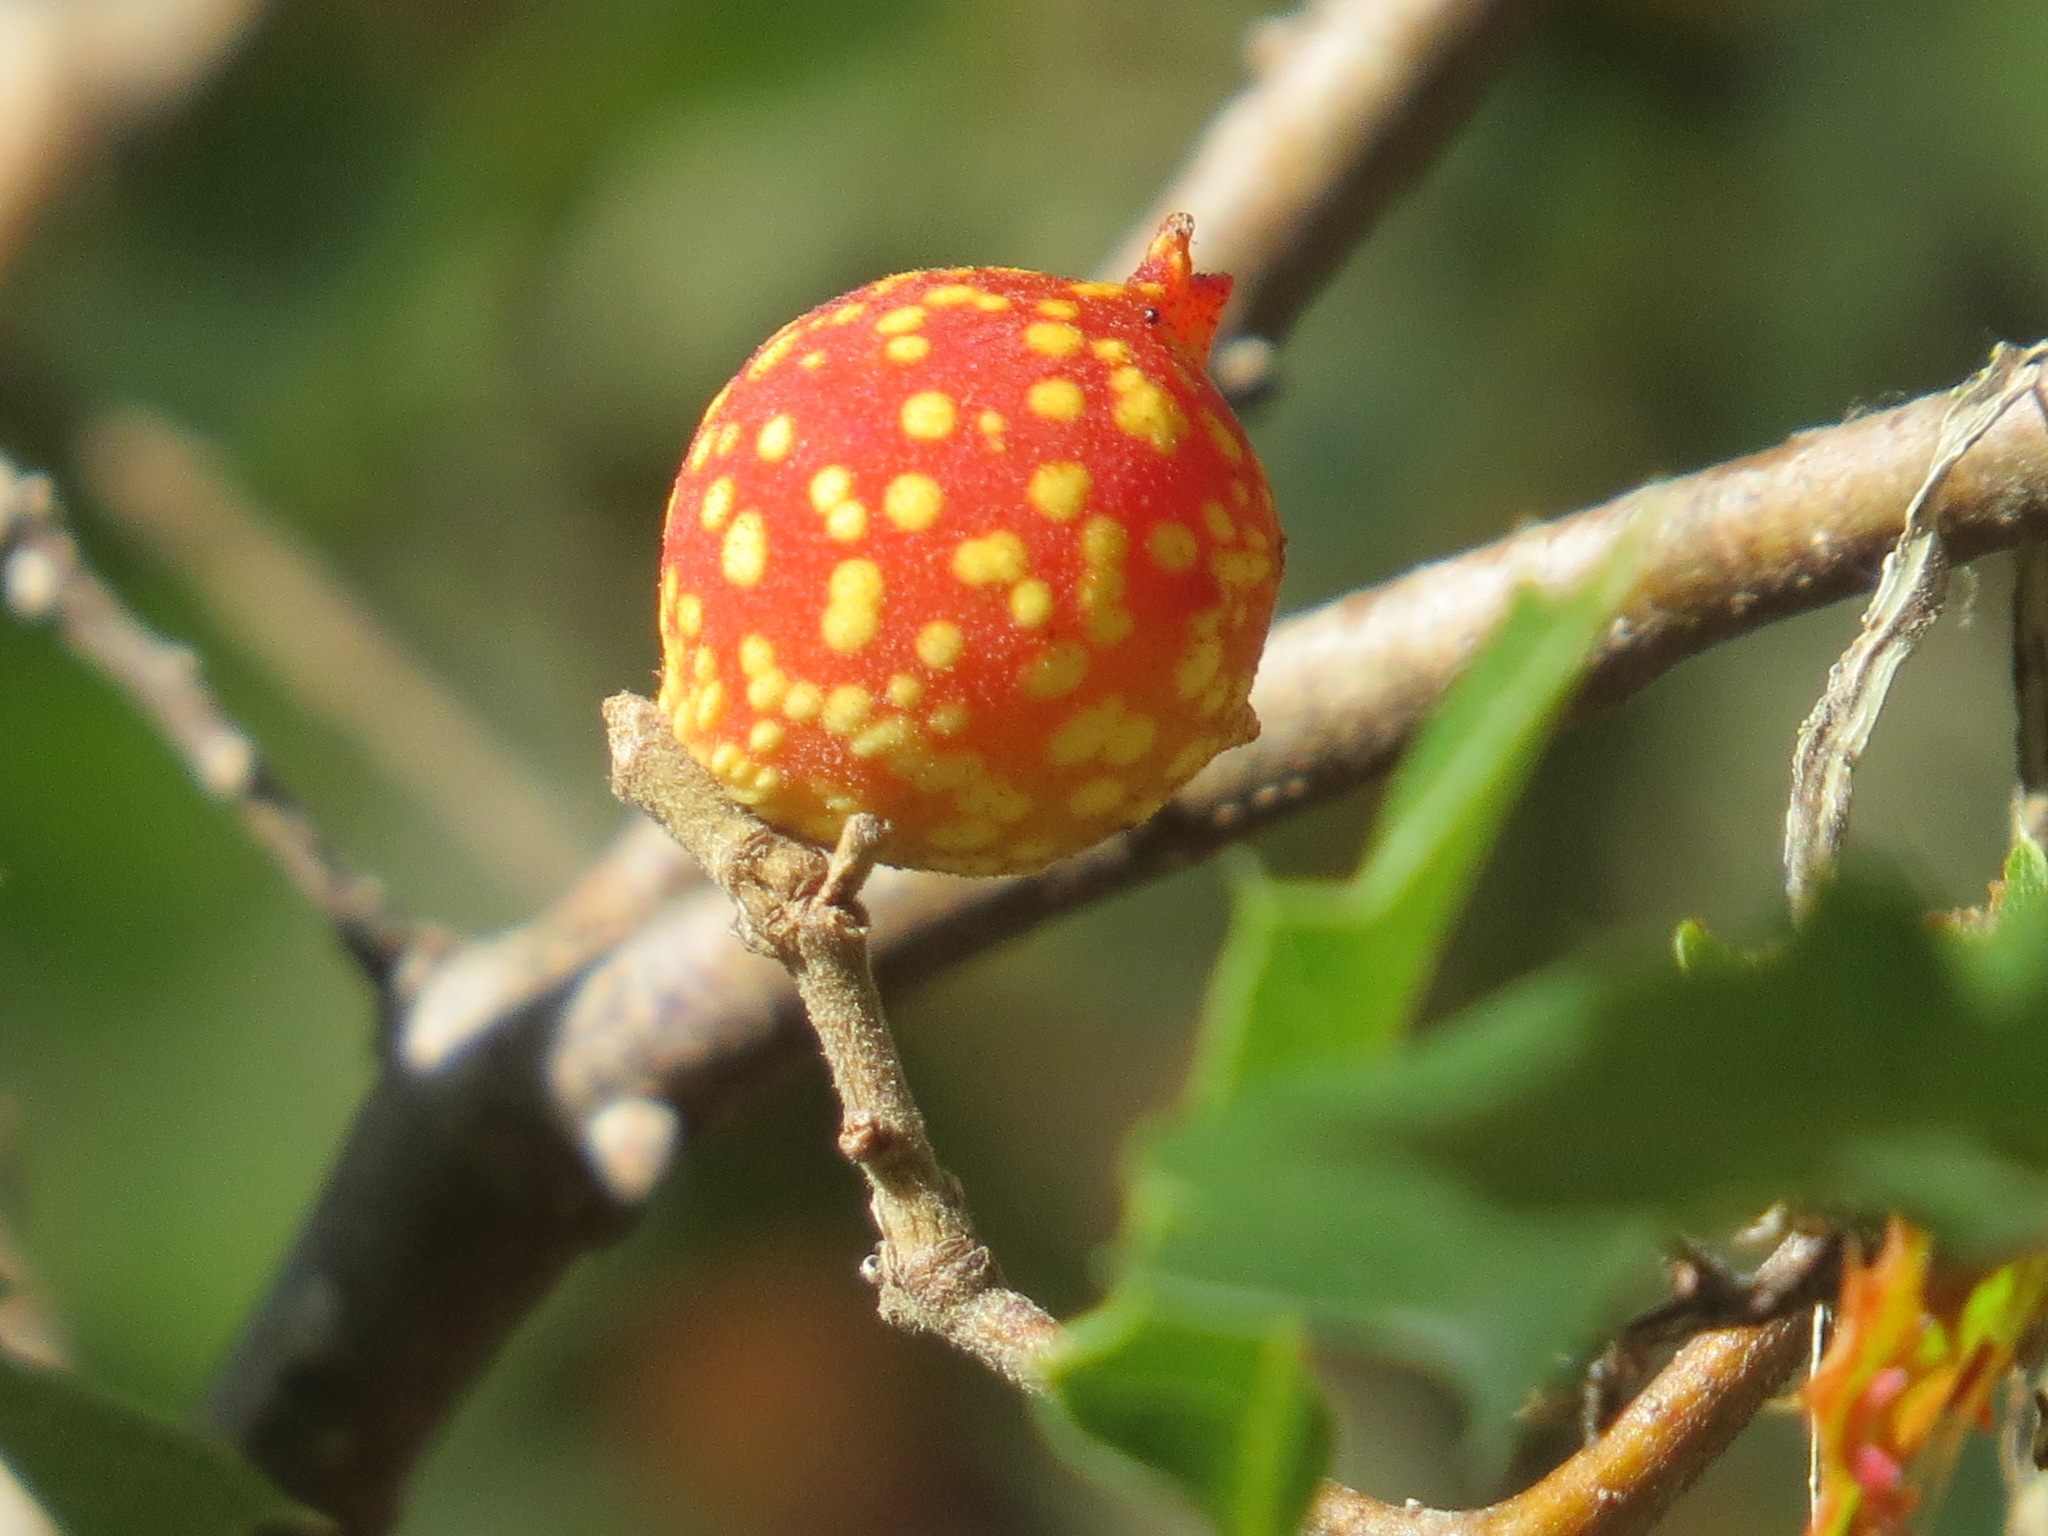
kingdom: Animalia
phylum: Arthropoda
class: Insecta
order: Hymenoptera
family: Cynipidae
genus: Burnettweldia
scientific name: Burnettweldia
